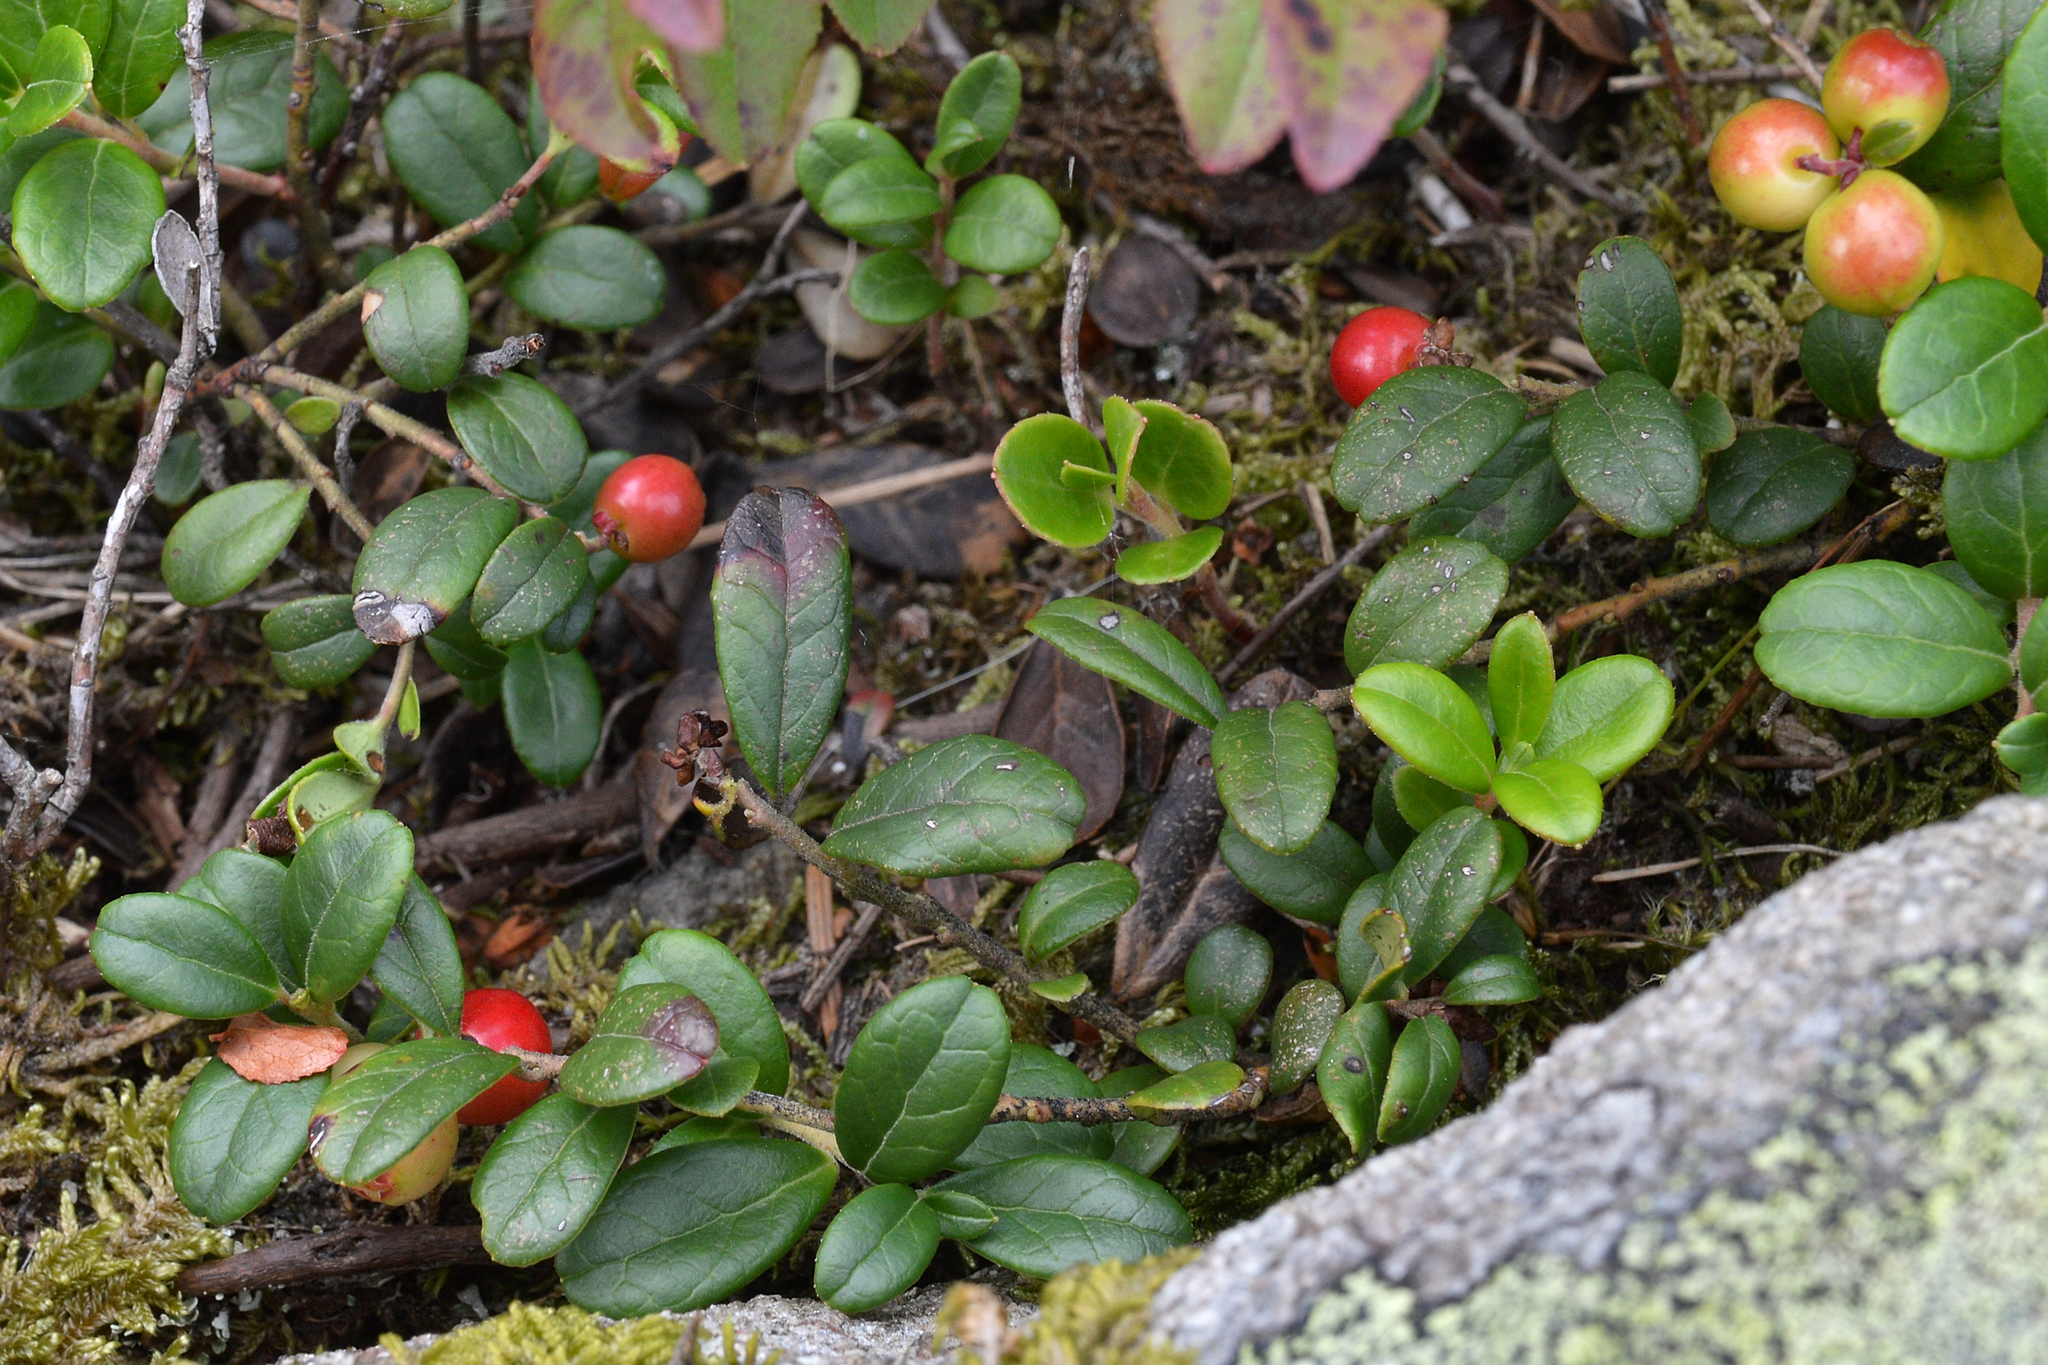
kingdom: Plantae
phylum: Tracheophyta
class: Magnoliopsida
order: Ericales
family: Ericaceae
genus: Vaccinium
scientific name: Vaccinium vitis-idaea
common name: Cowberry
